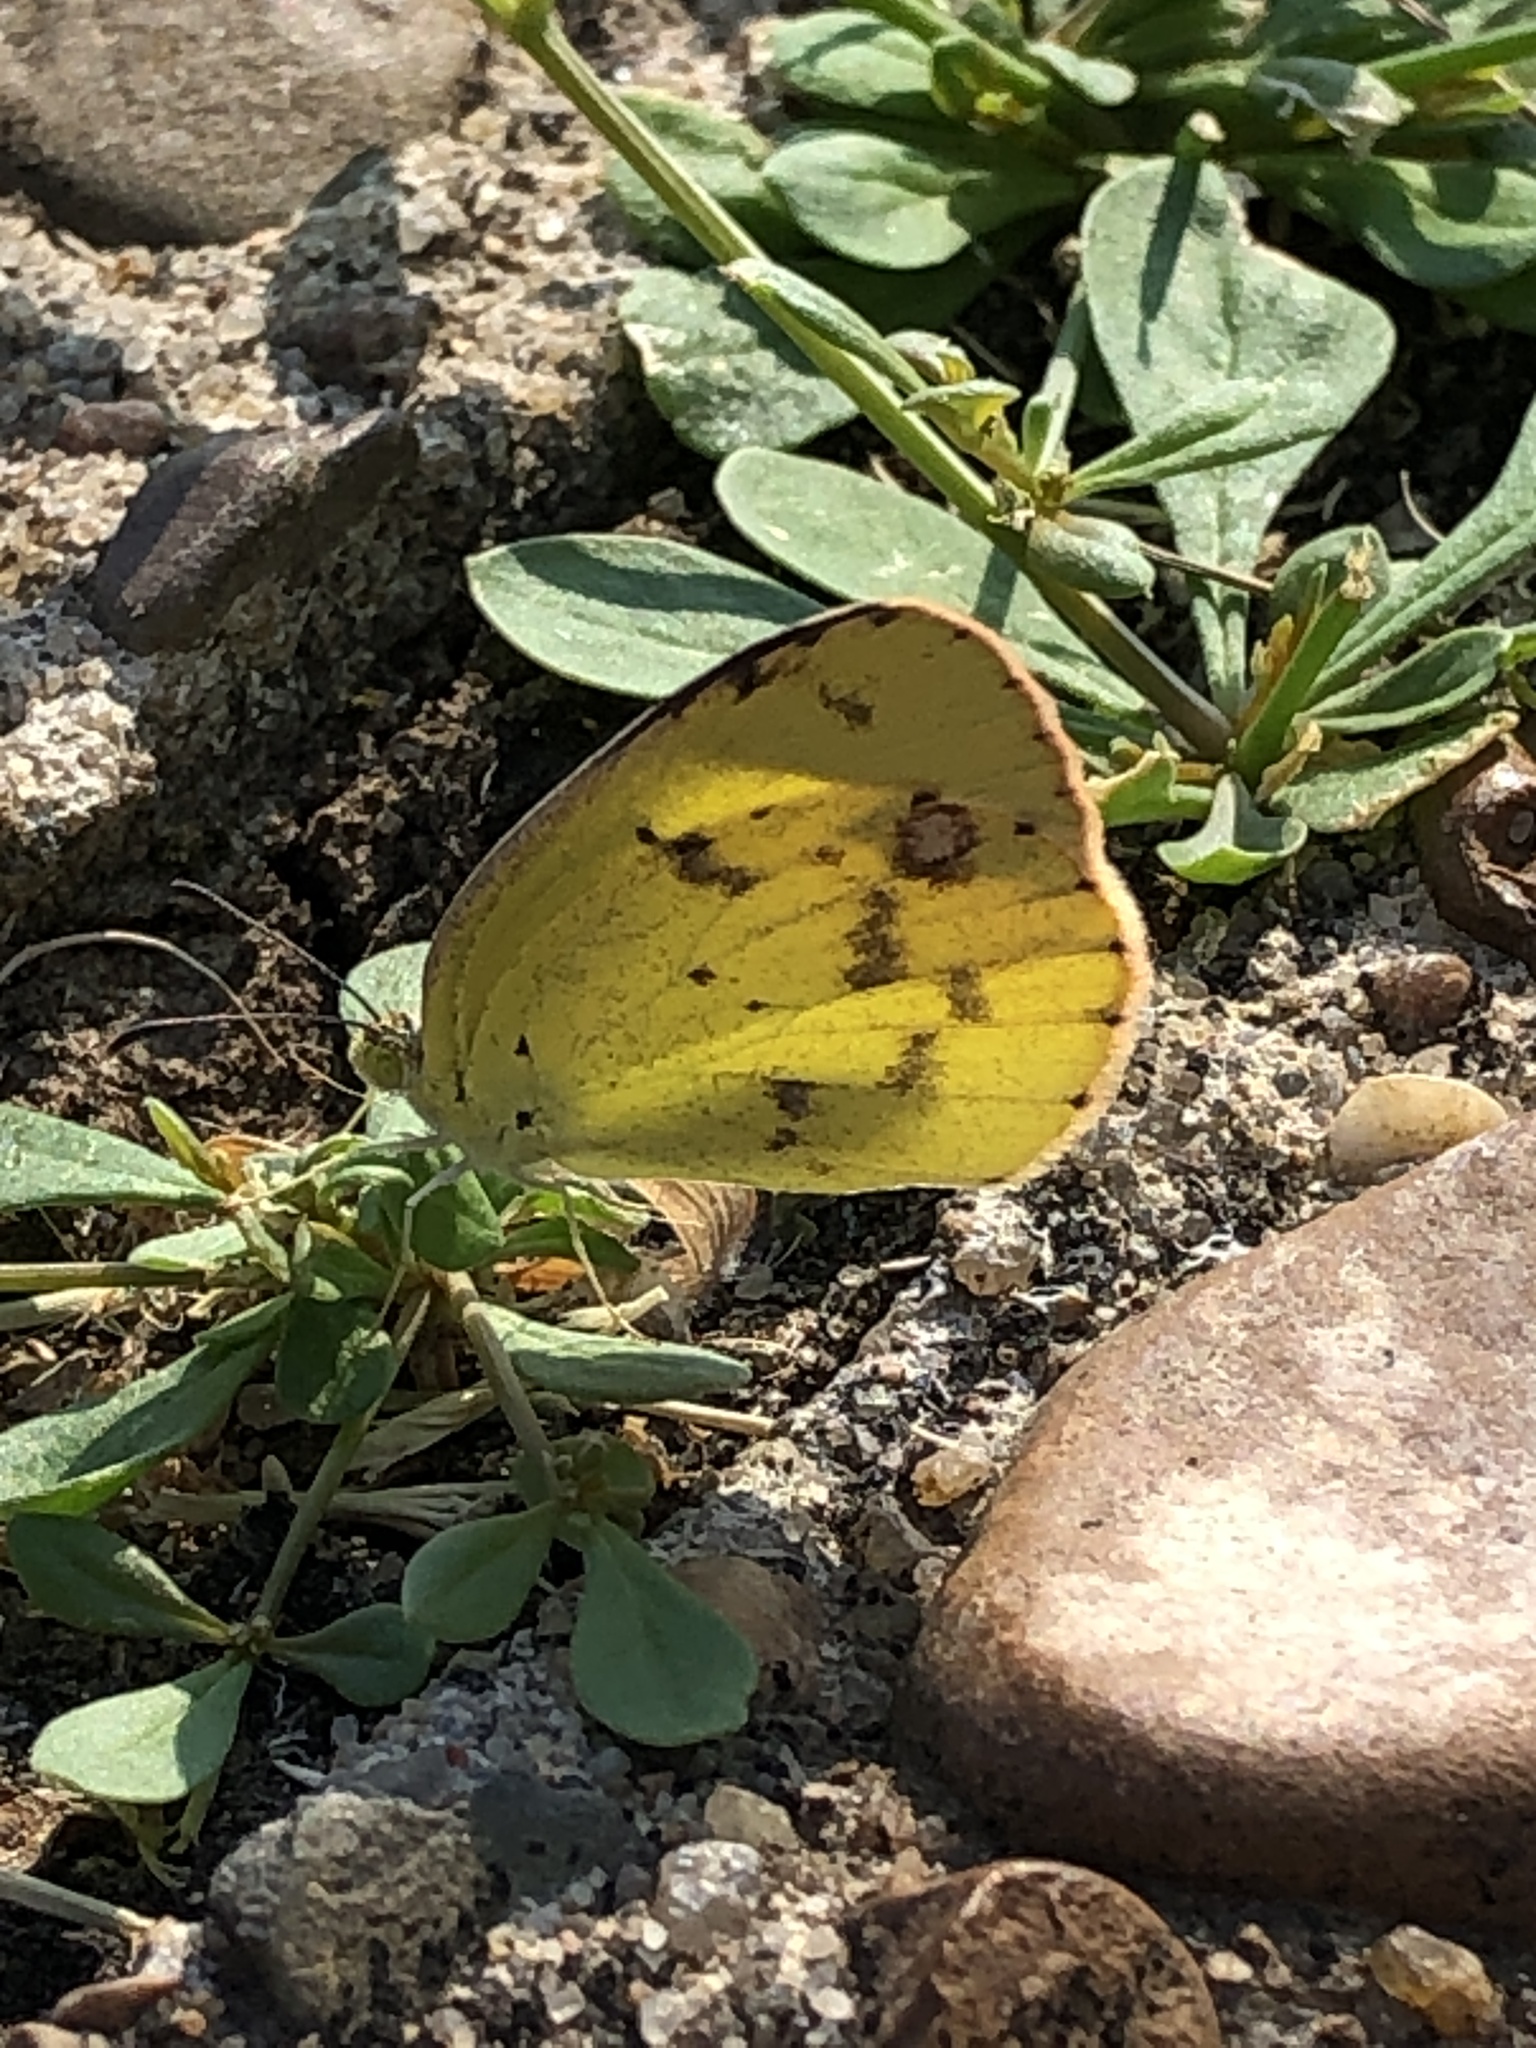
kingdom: Animalia
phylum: Arthropoda
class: Insecta
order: Lepidoptera
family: Pieridae
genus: Pyrisitia
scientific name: Pyrisitia lisa
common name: Little yellow
